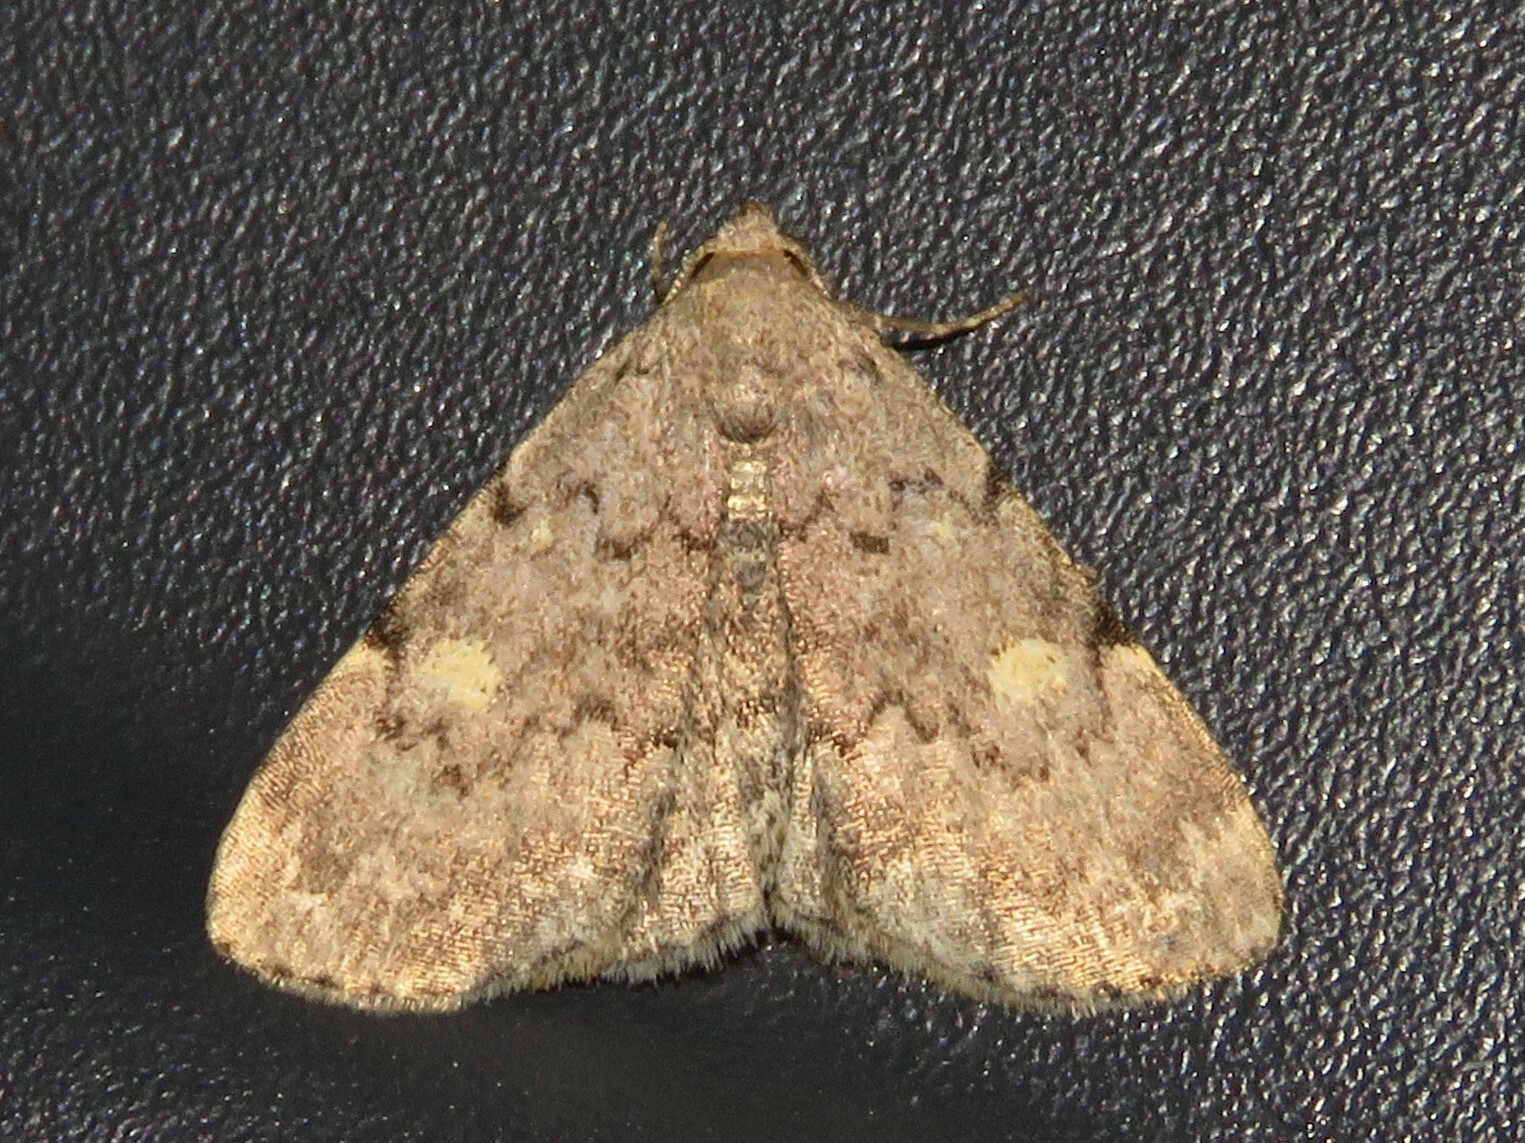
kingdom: Animalia
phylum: Arthropoda
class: Insecta
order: Lepidoptera
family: Erebidae
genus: Idia
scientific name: Idia aemula
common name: Common idia moth
